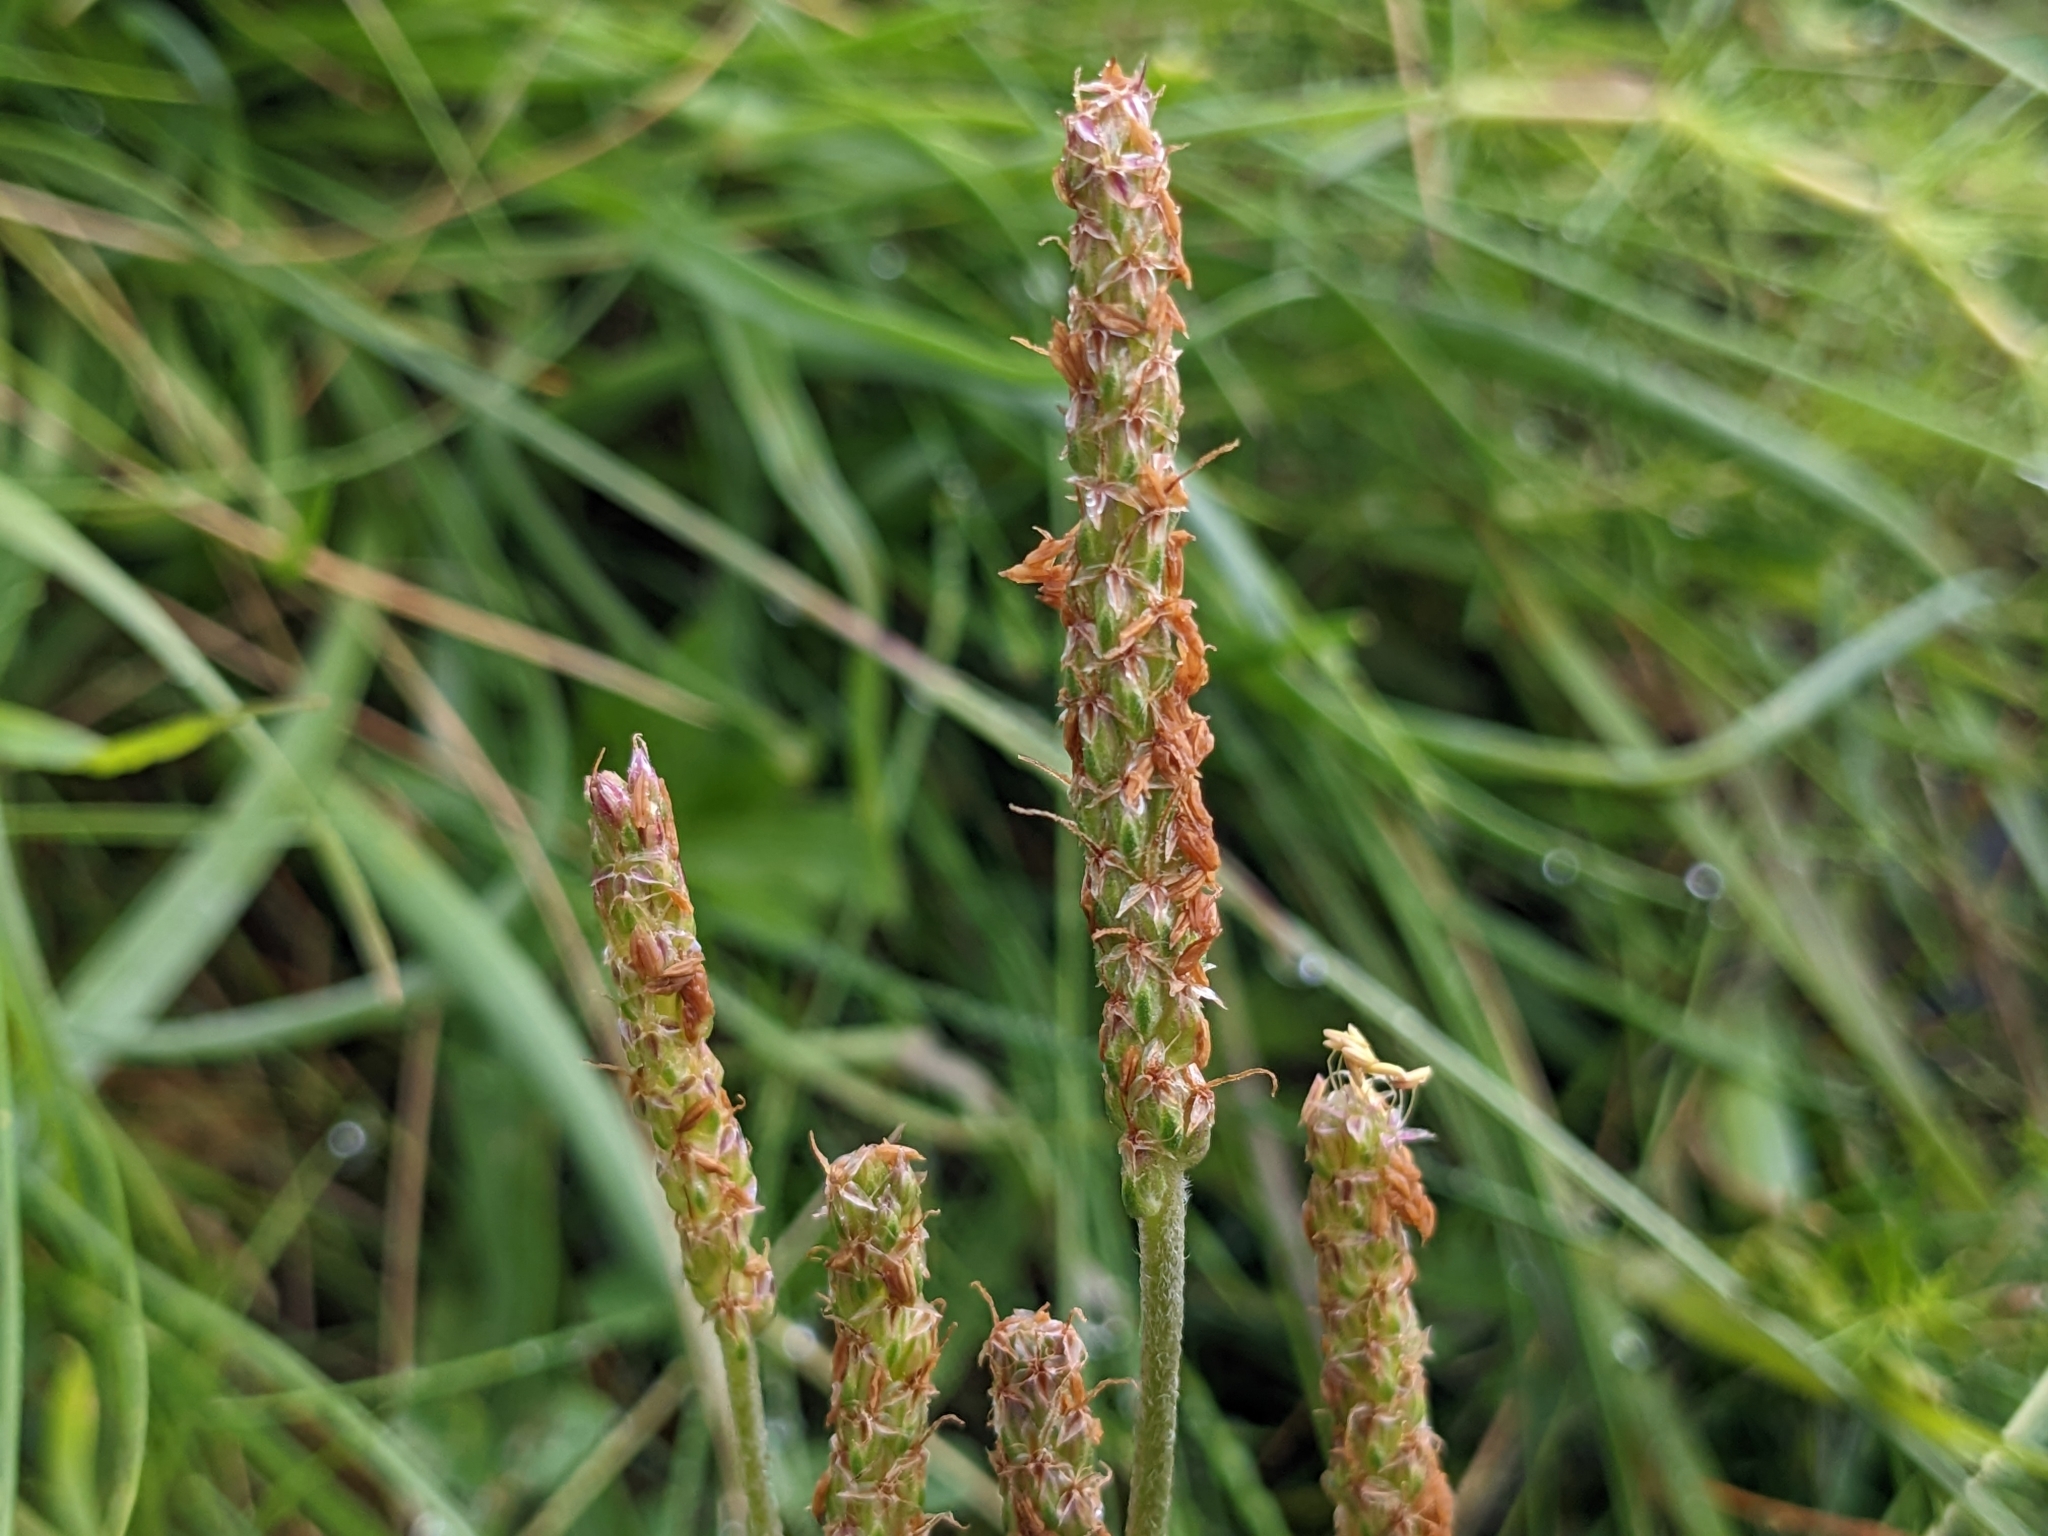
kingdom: Plantae
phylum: Tracheophyta
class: Magnoliopsida
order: Lamiales
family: Plantaginaceae
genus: Plantago
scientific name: Plantago maritima
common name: Sea plantain
